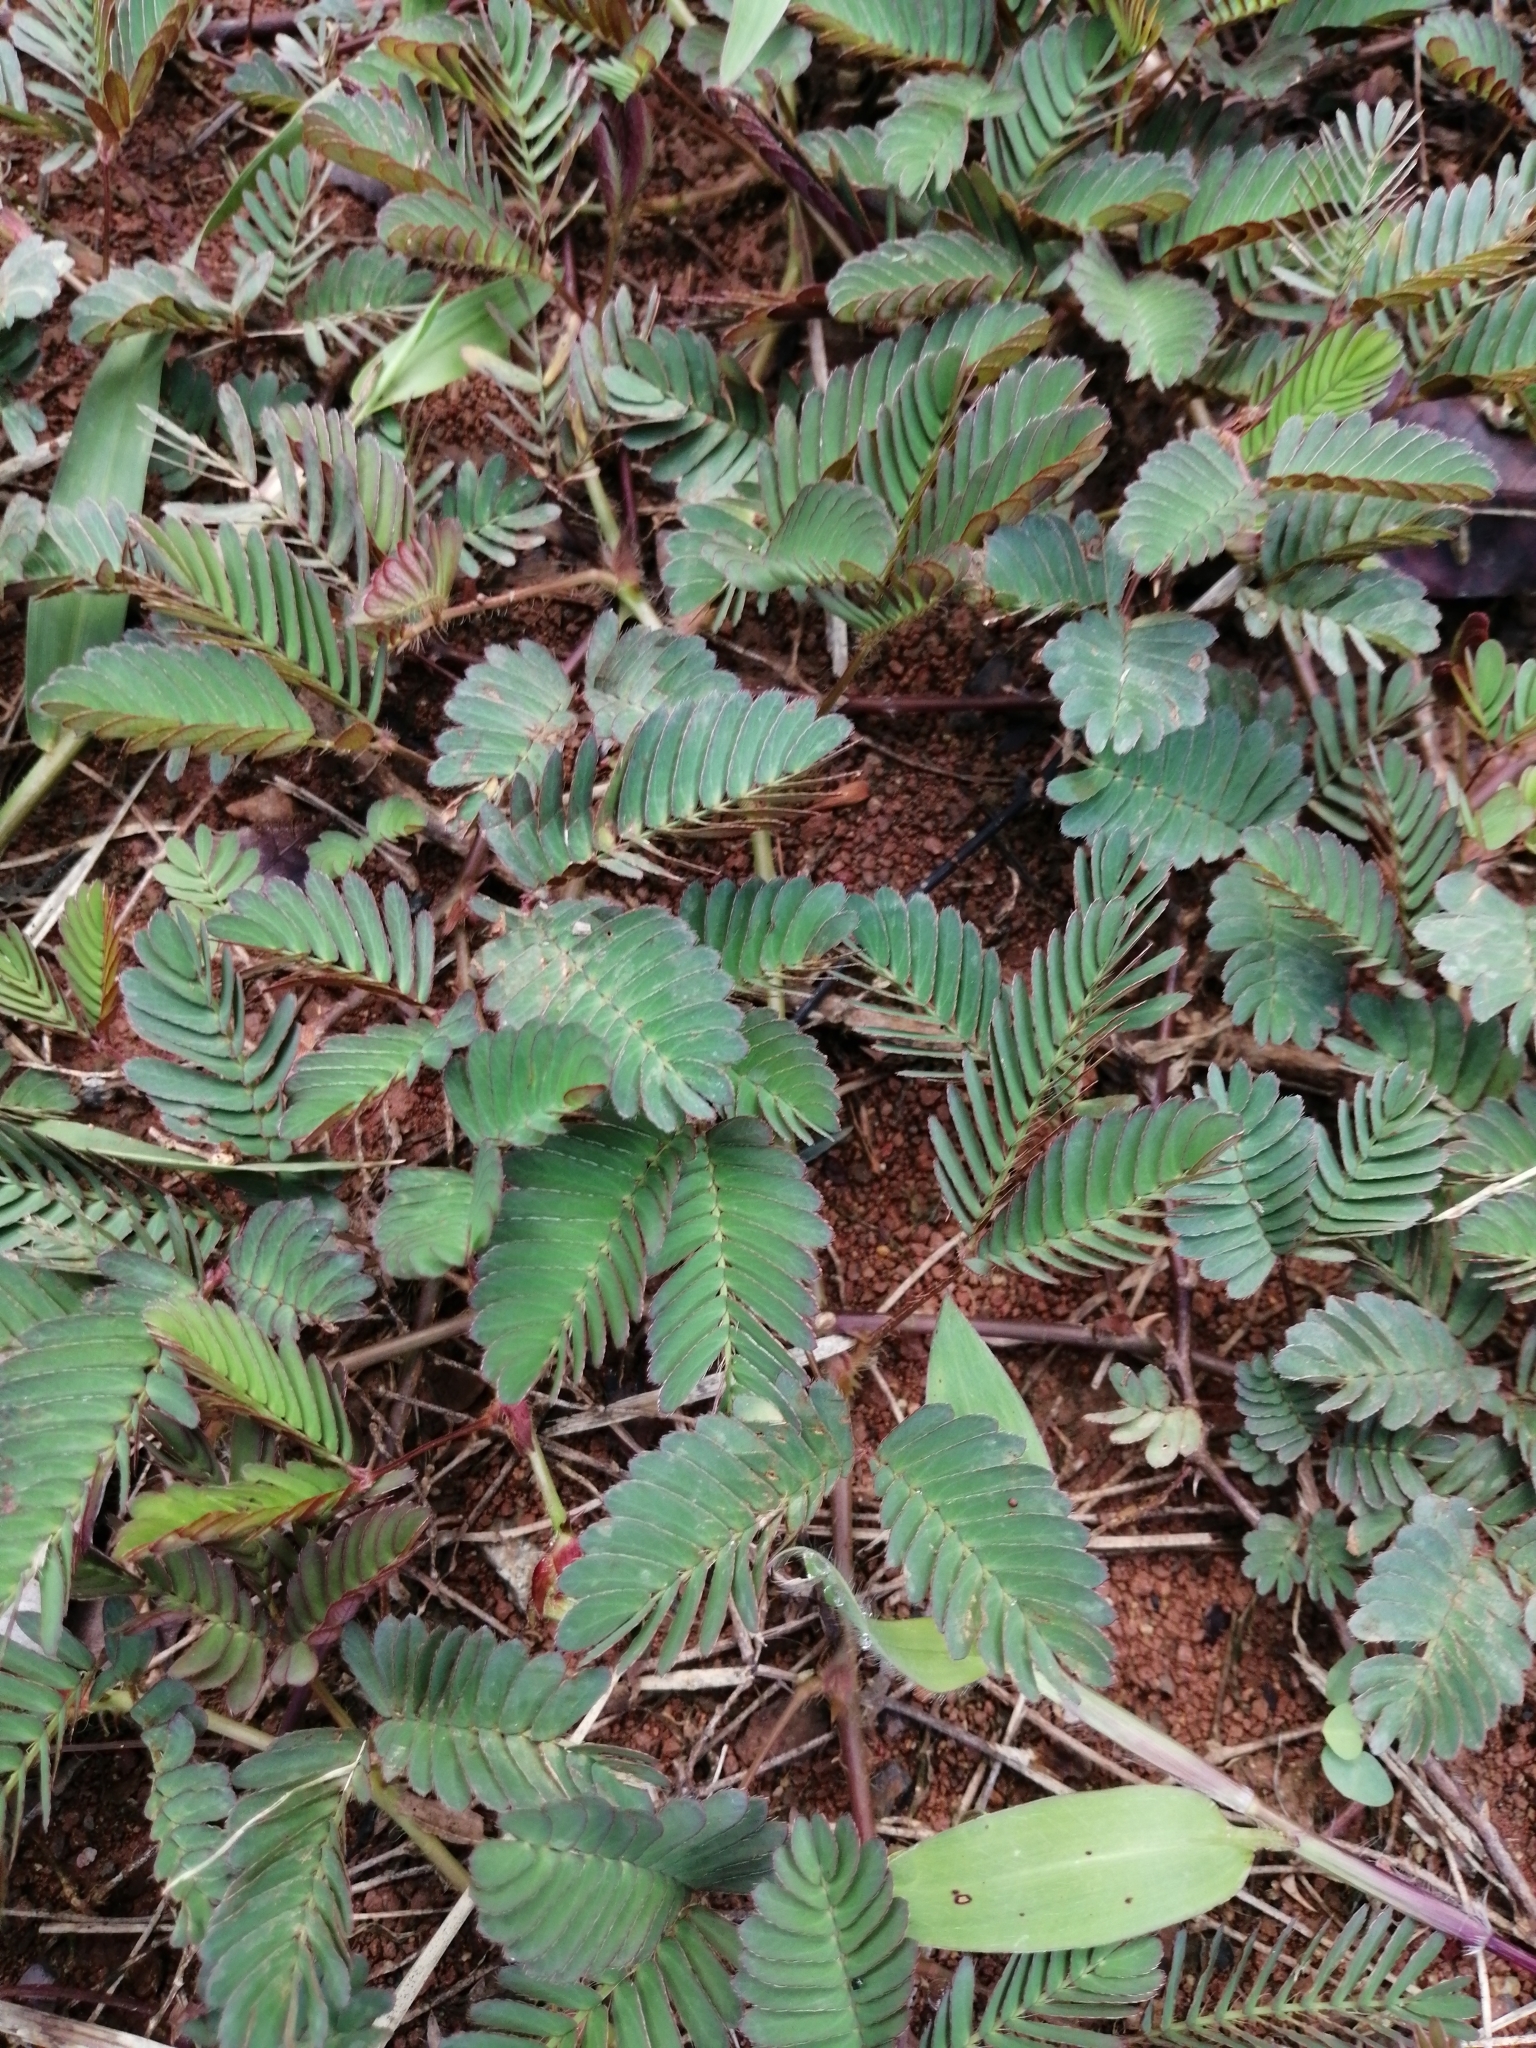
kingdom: Plantae
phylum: Tracheophyta
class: Magnoliopsida
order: Fabales
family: Fabaceae
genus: Mimosa
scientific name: Mimosa pudica
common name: Sensitive plant
